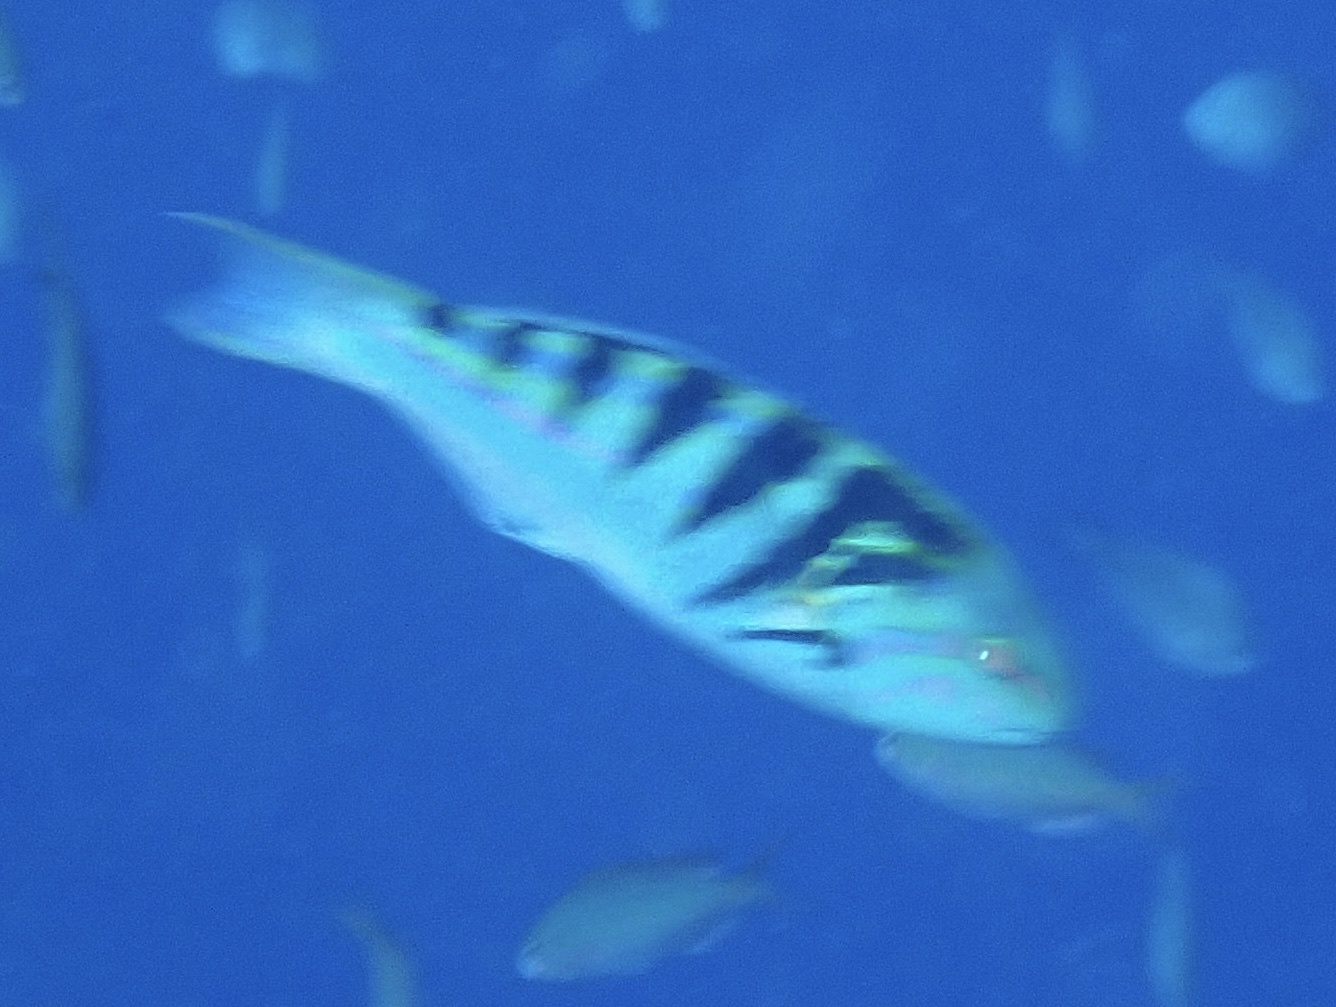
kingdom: Animalia
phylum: Chordata
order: Perciformes
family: Labridae
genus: Thalassoma
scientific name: Thalassoma hardwicke
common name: Sixbar wrasse
